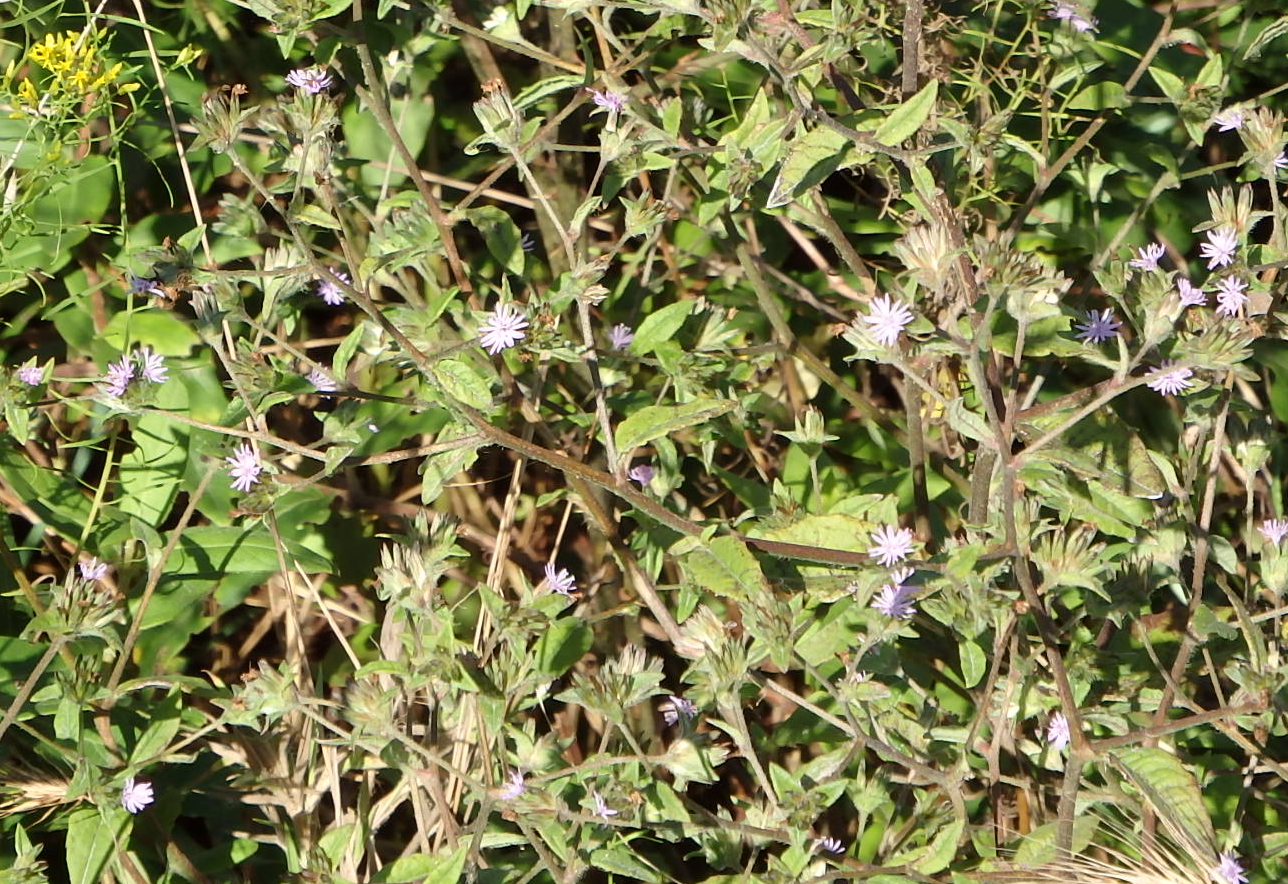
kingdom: Plantae
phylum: Tracheophyta
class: Magnoliopsida
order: Asterales
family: Asteraceae
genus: Elephantopus
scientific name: Elephantopus carolinianus
